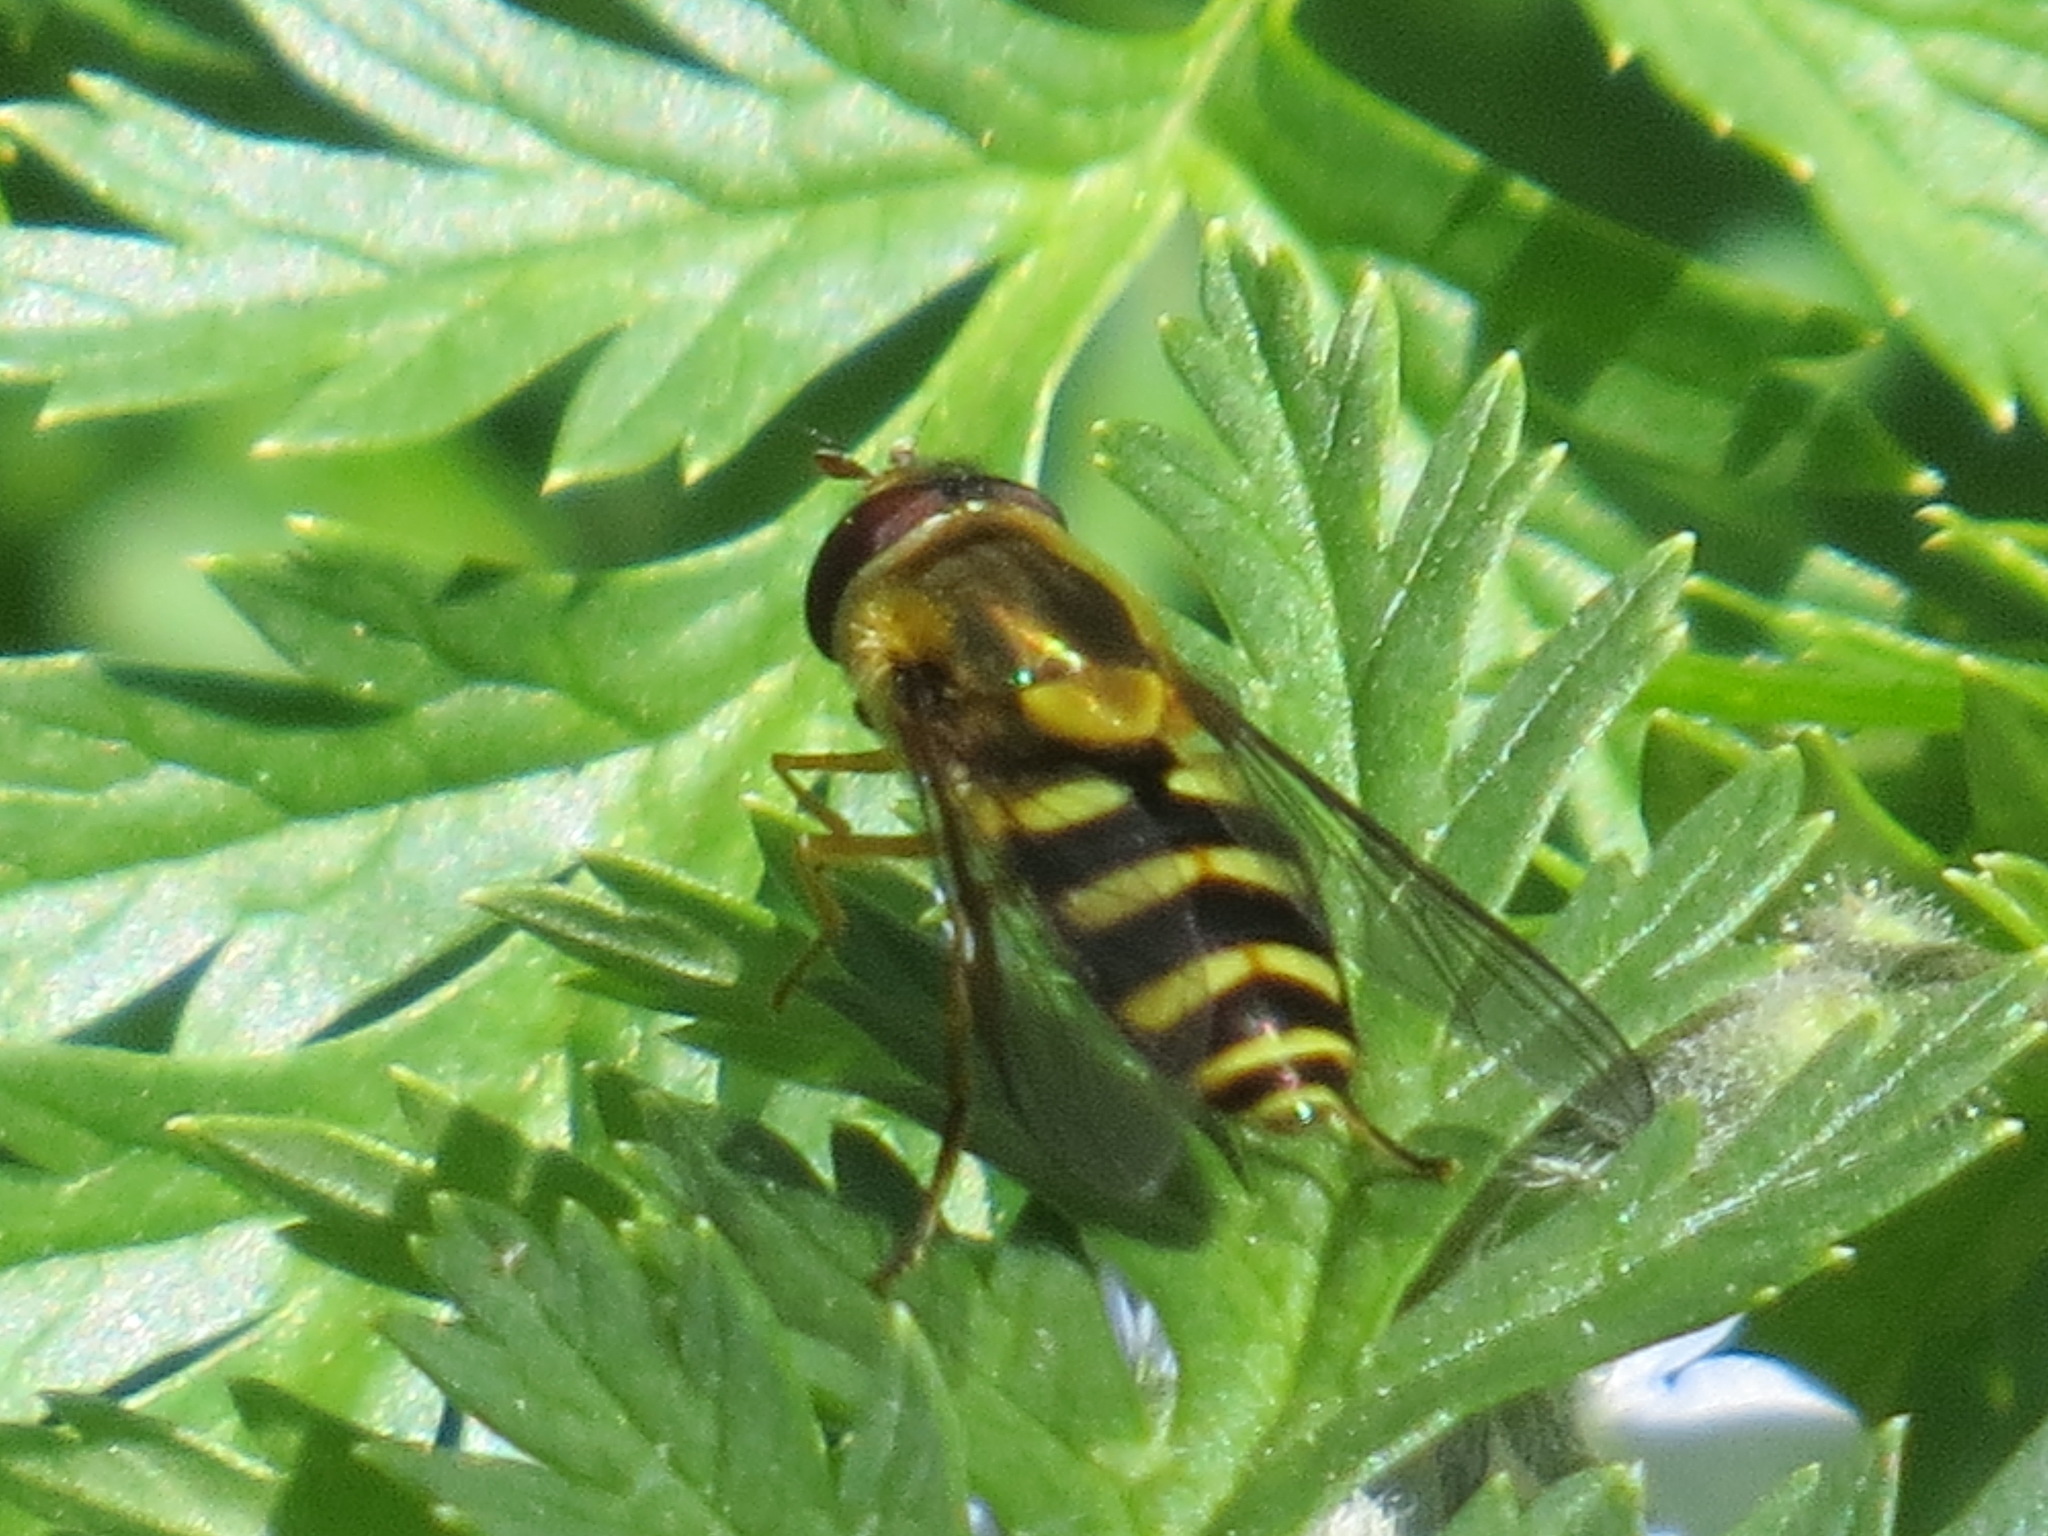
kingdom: Animalia
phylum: Arthropoda
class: Insecta
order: Diptera
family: Syrphidae
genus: Syrphus
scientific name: Syrphus opinator
